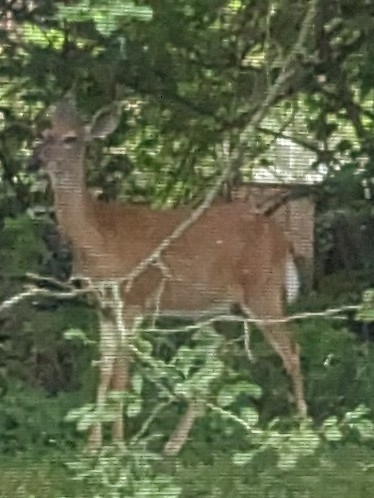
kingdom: Animalia
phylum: Chordata
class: Mammalia
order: Artiodactyla
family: Cervidae
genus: Odocoileus
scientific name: Odocoileus virginianus
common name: White-tailed deer
